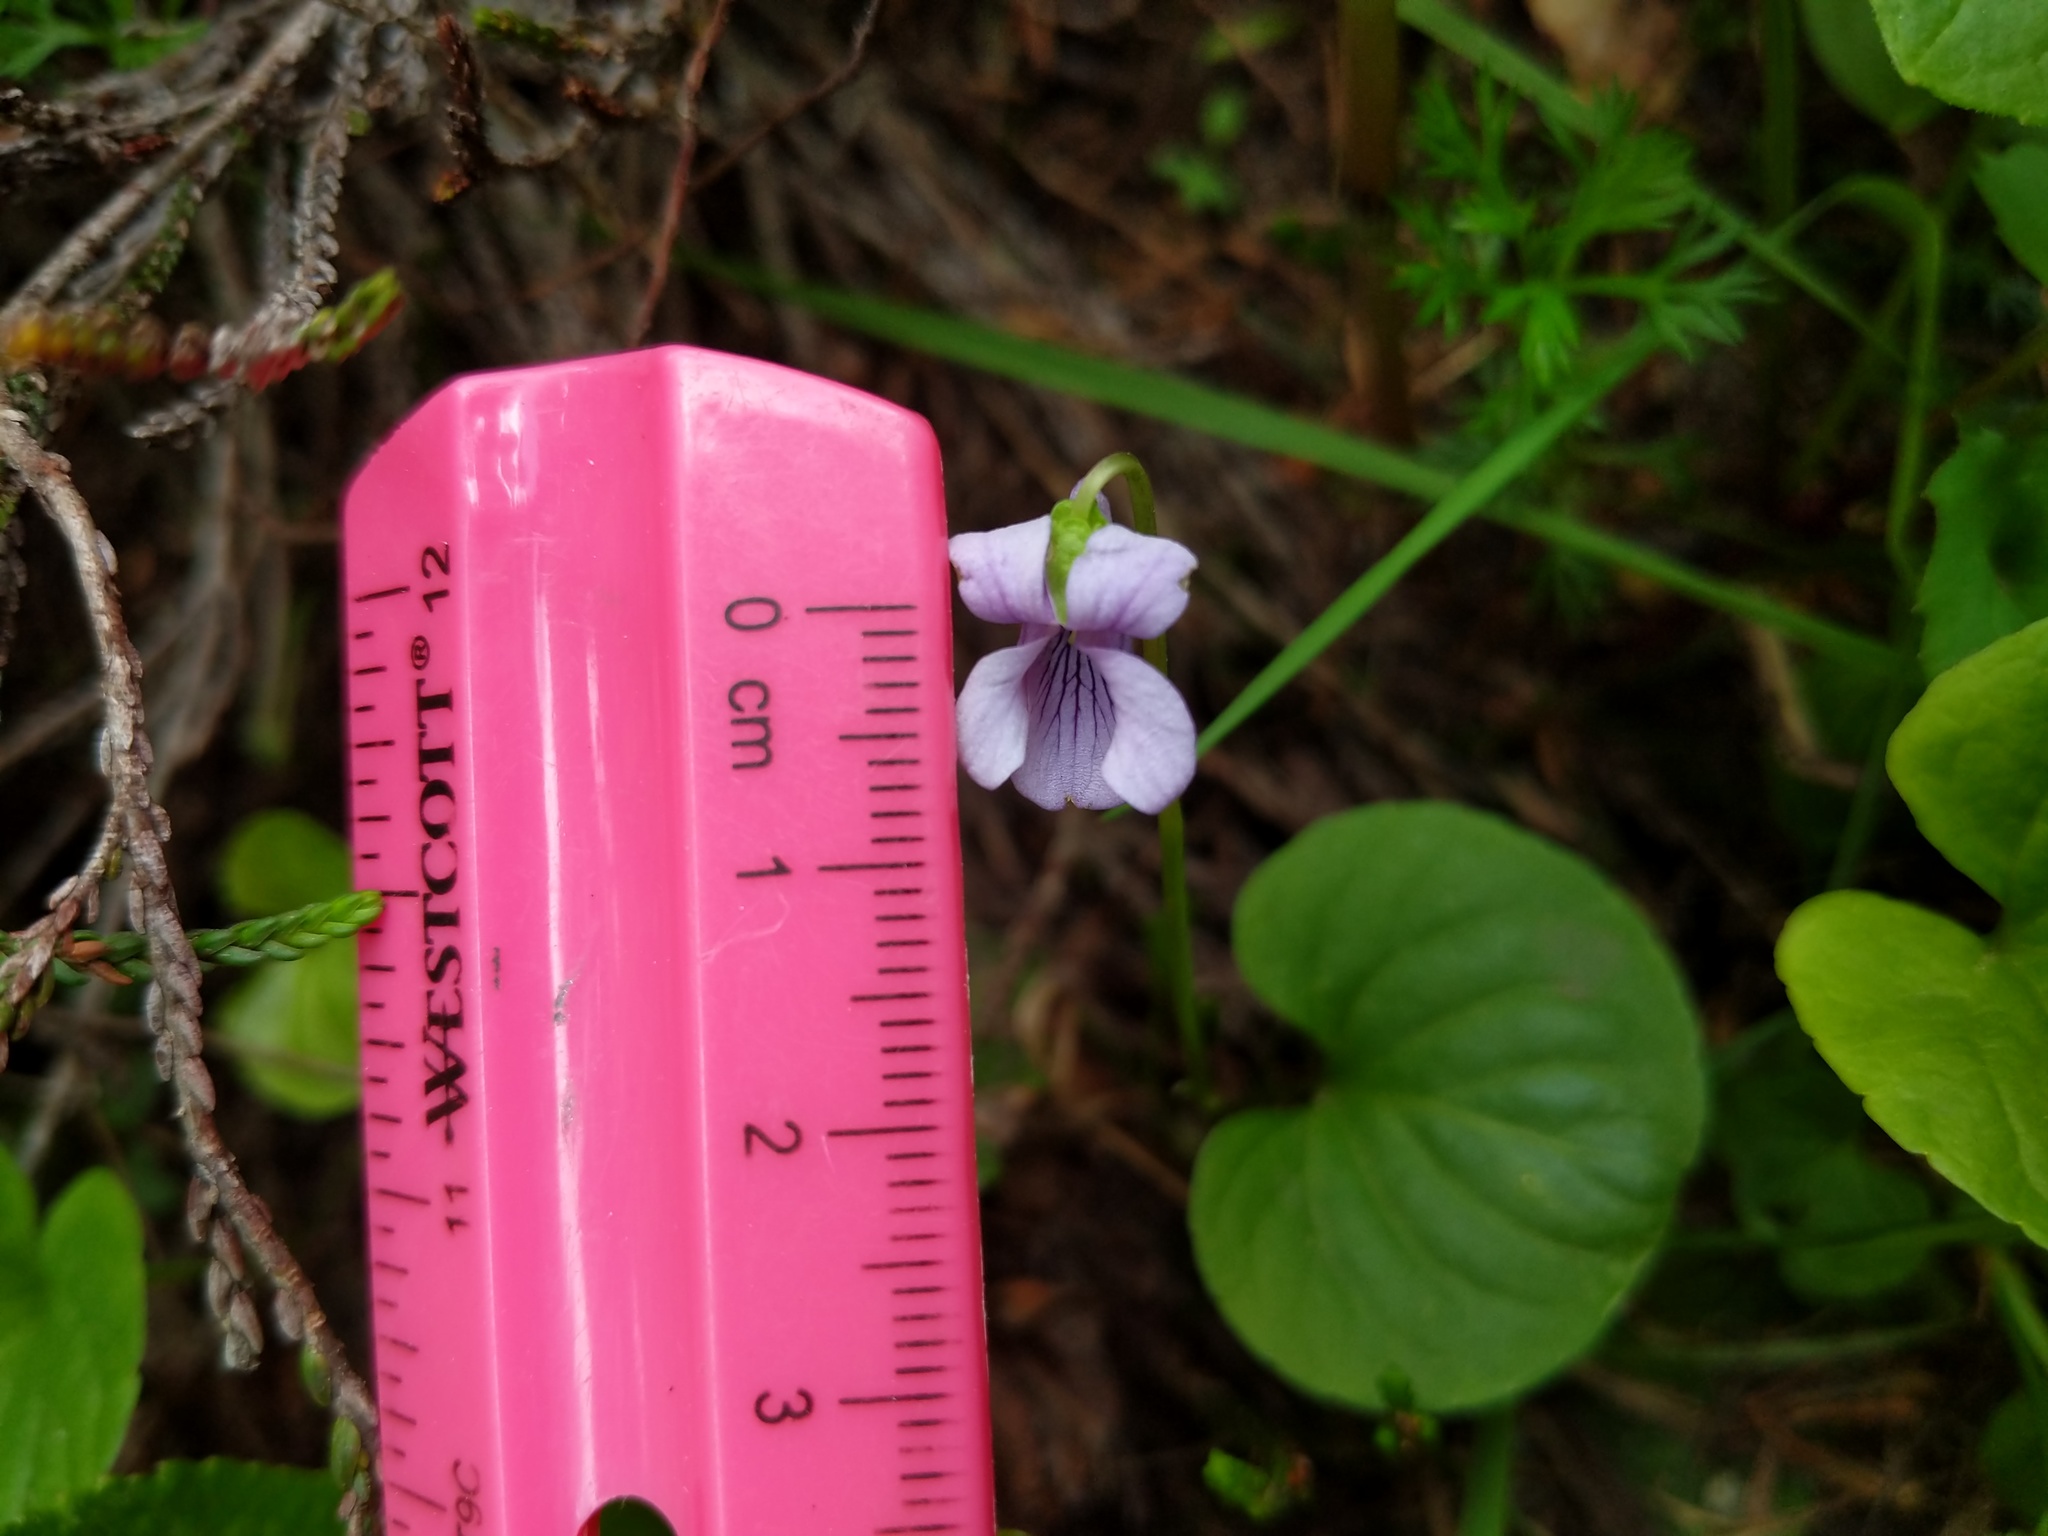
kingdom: Plantae
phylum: Tracheophyta
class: Magnoliopsida
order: Malpighiales
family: Violaceae
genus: Viola
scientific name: Viola palustris
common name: Marsh violet
